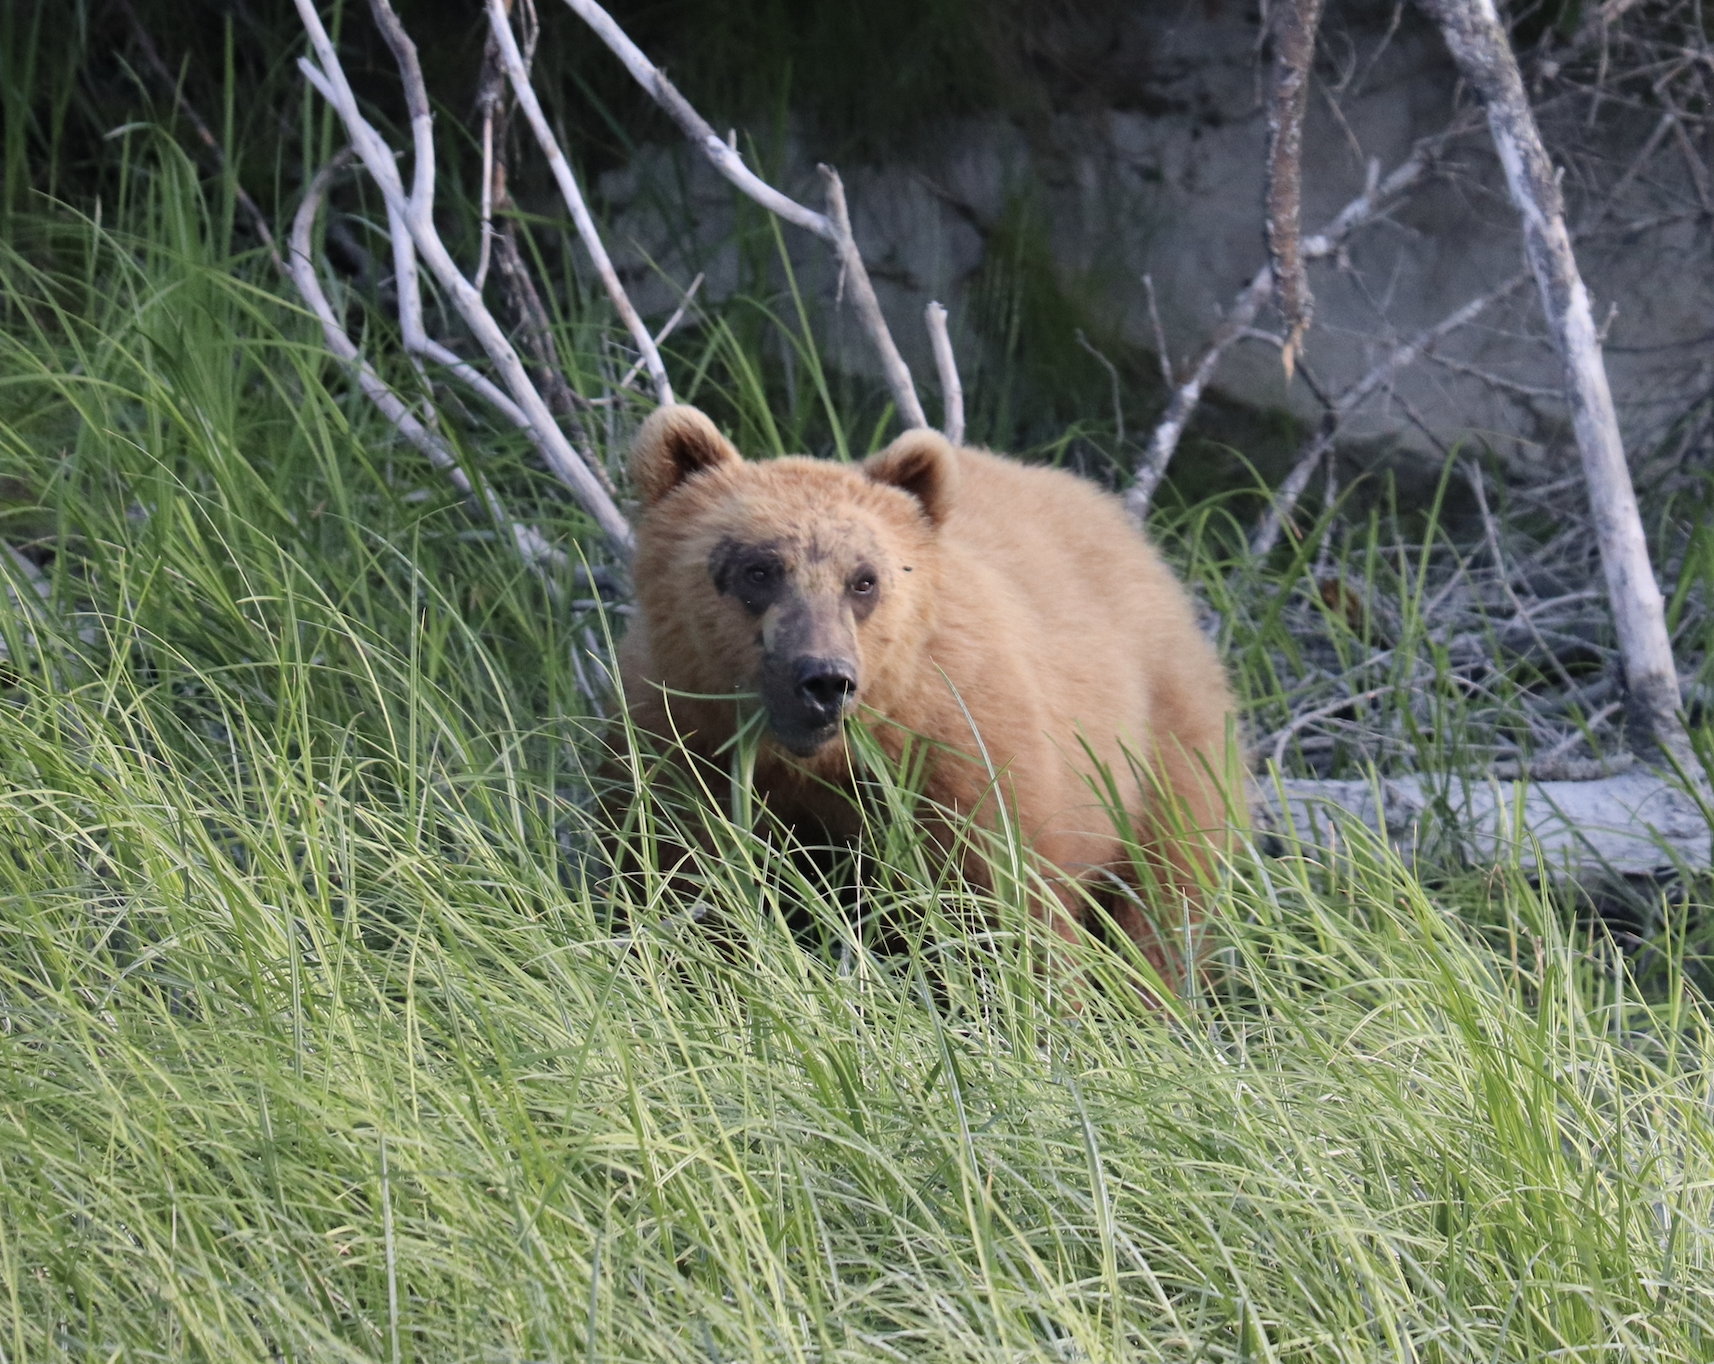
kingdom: Animalia
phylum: Chordata
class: Mammalia
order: Carnivora
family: Ursidae
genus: Ursus
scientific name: Ursus arctos
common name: Brown bear
